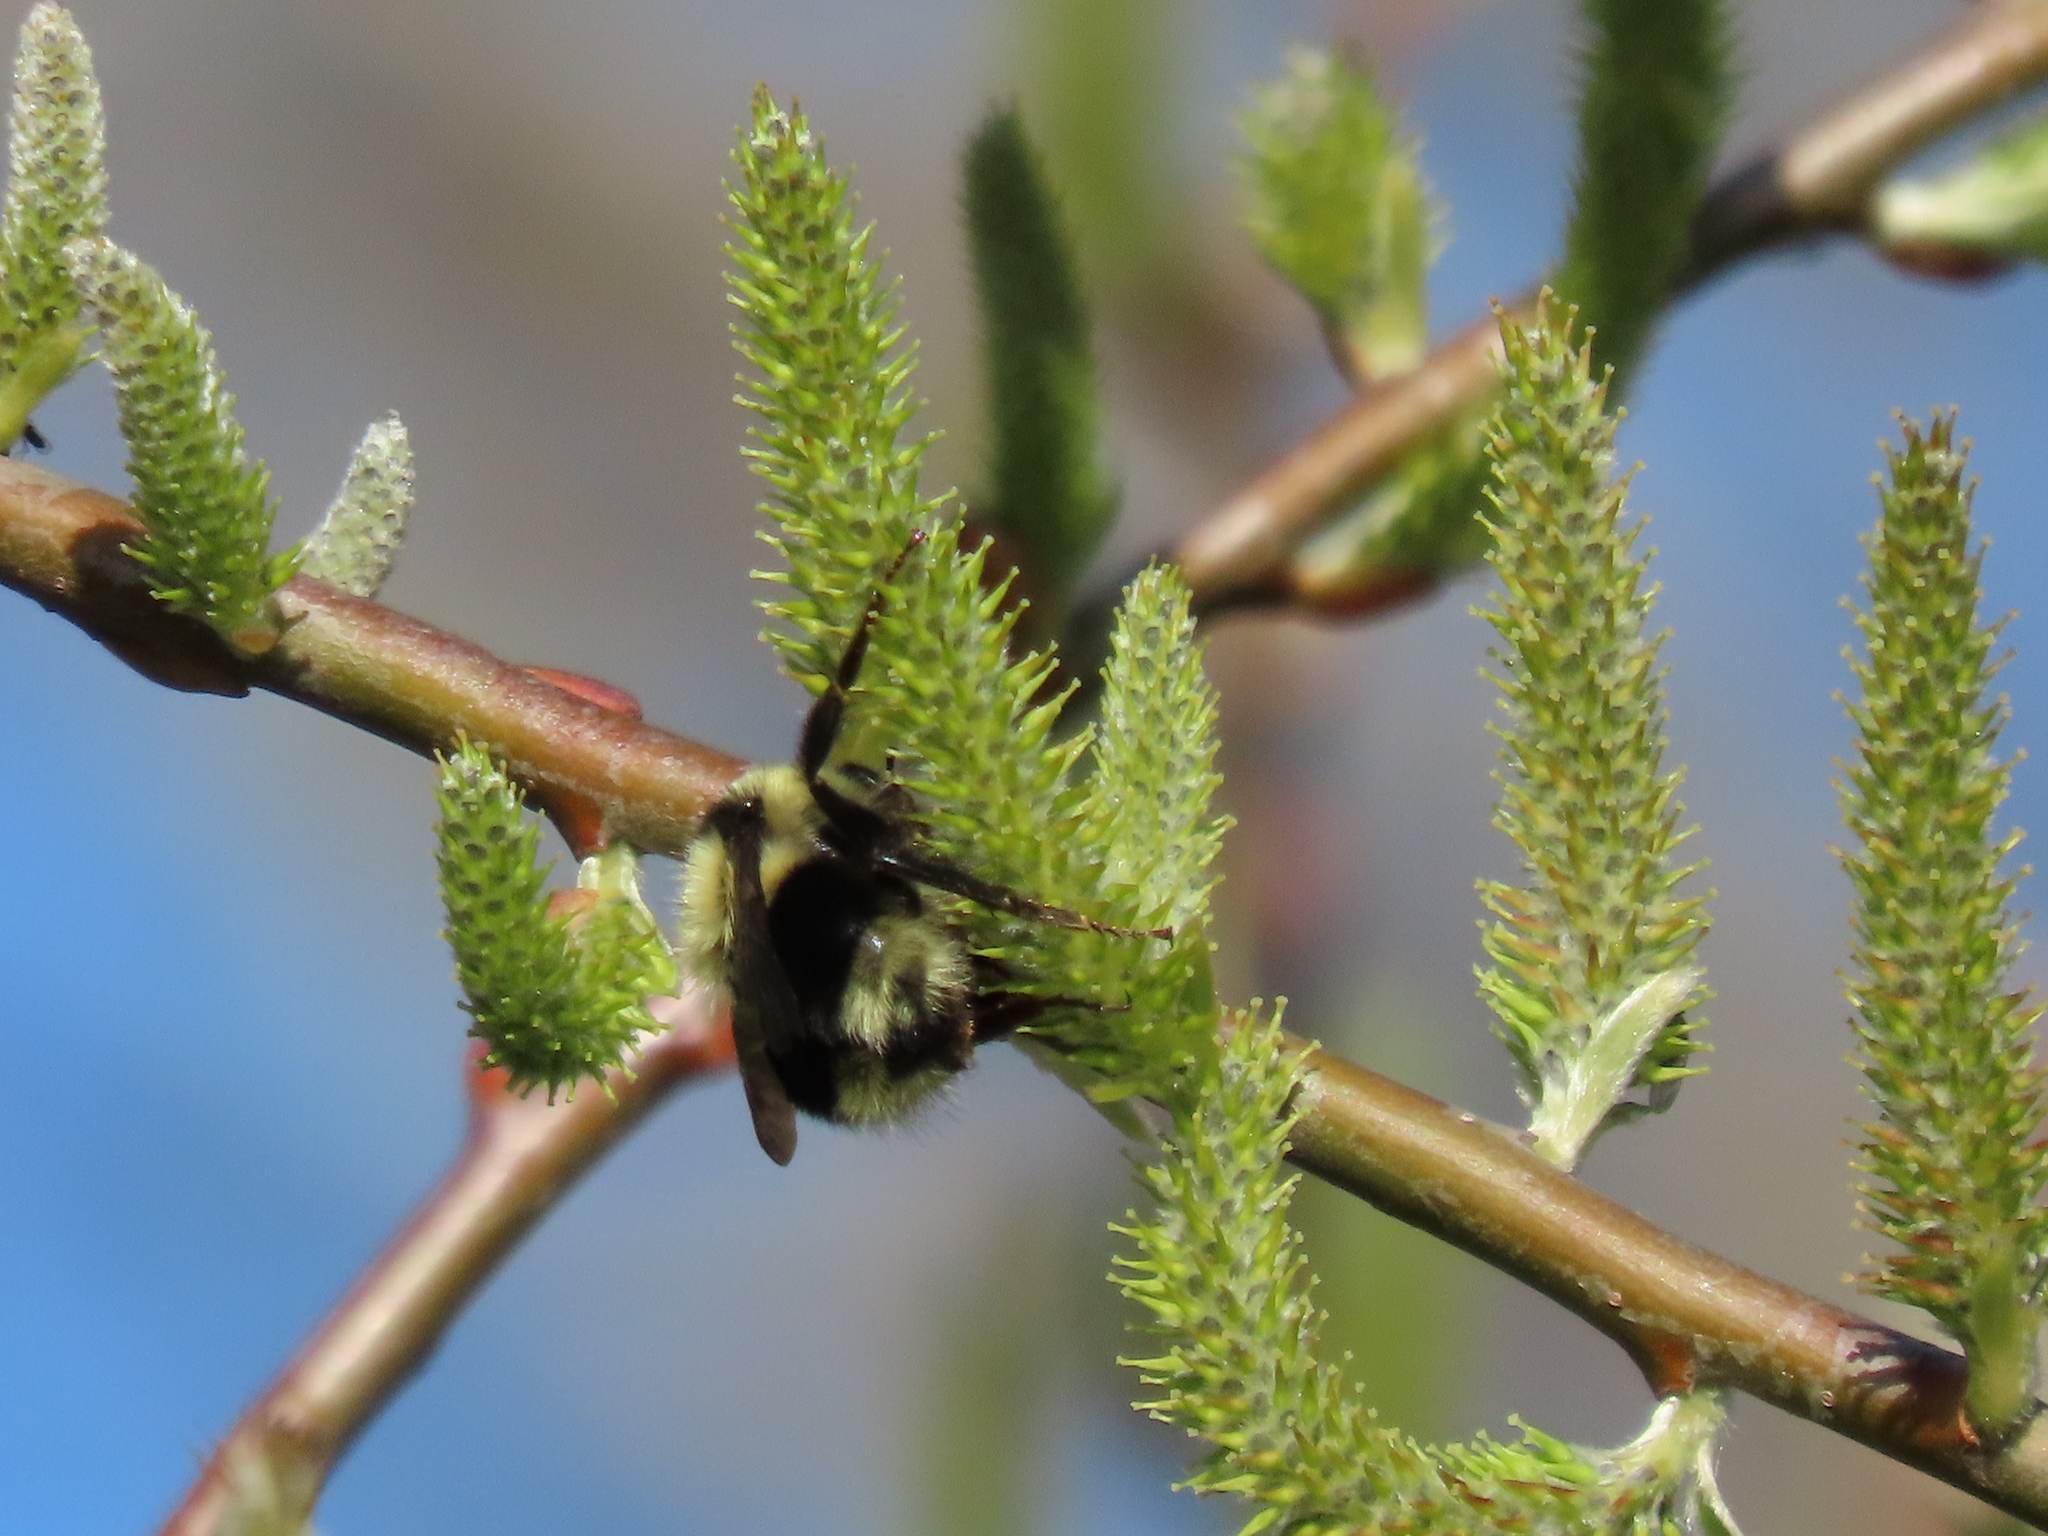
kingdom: Animalia
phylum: Arthropoda
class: Insecta
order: Hymenoptera
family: Apidae
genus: Bombus
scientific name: Bombus melanopygus
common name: Black tail bumble bee
